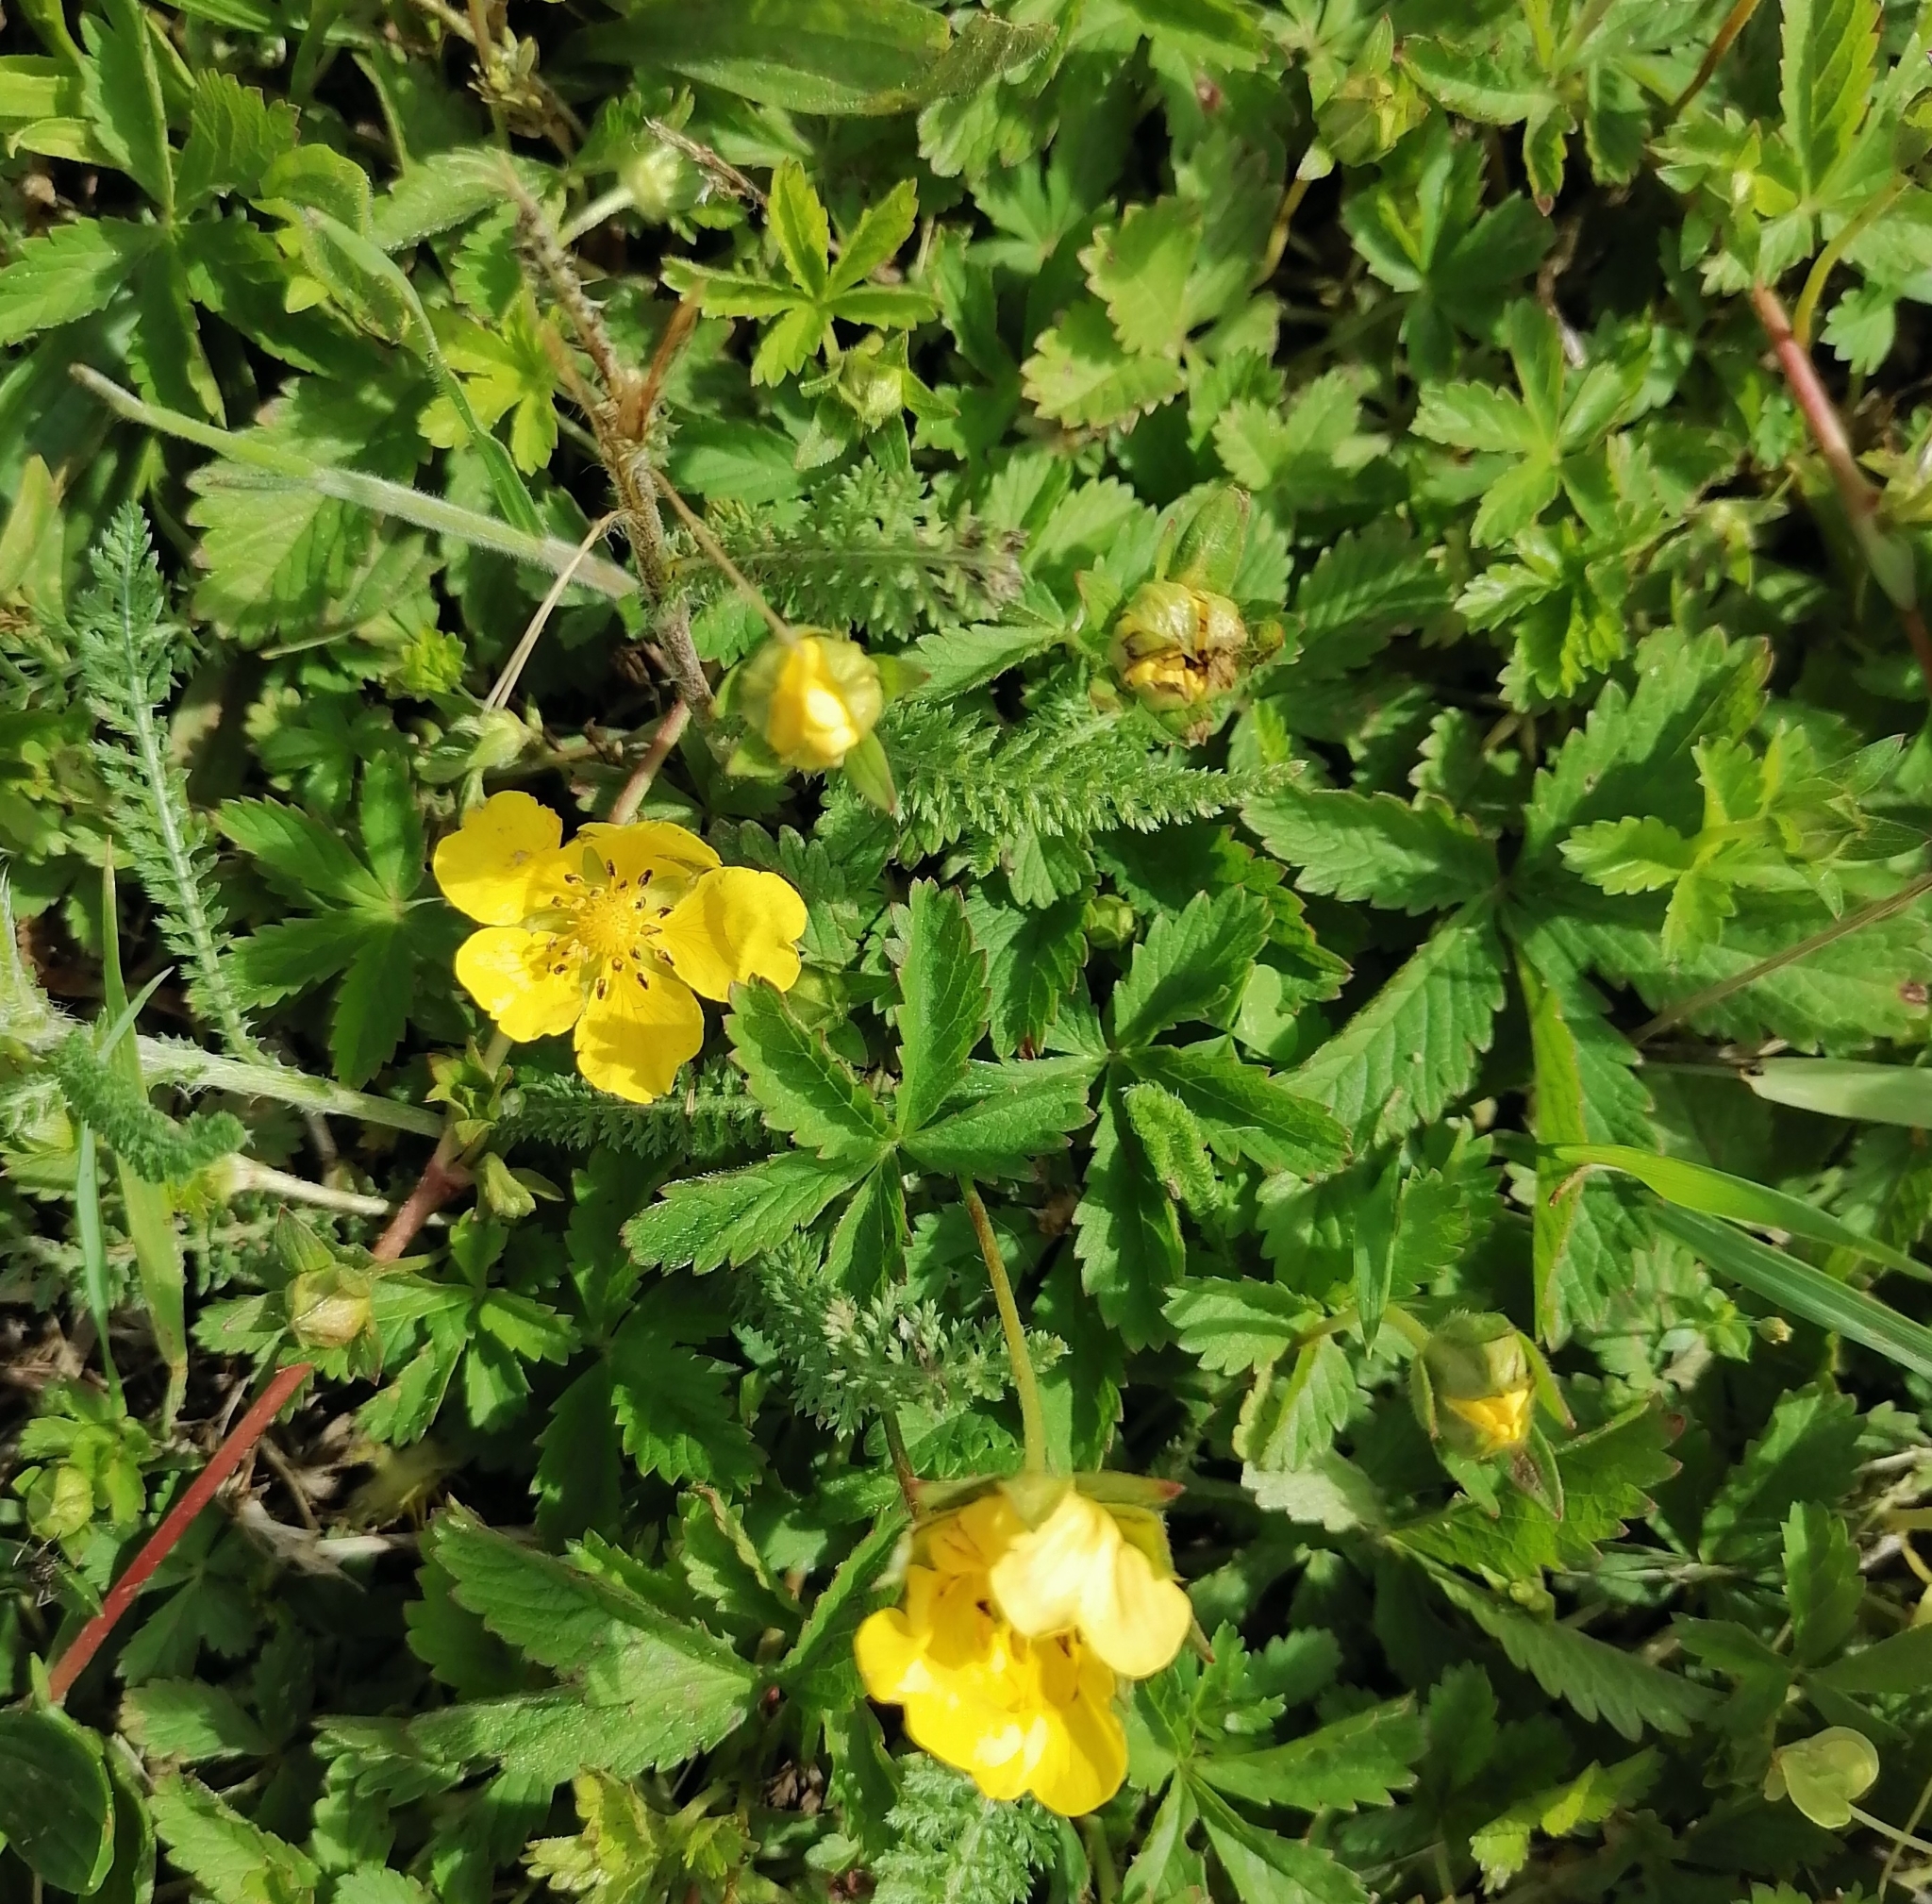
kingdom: Plantae
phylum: Tracheophyta
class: Magnoliopsida
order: Rosales
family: Rosaceae
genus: Potentilla
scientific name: Potentilla reptans
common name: Creeping cinquefoil
